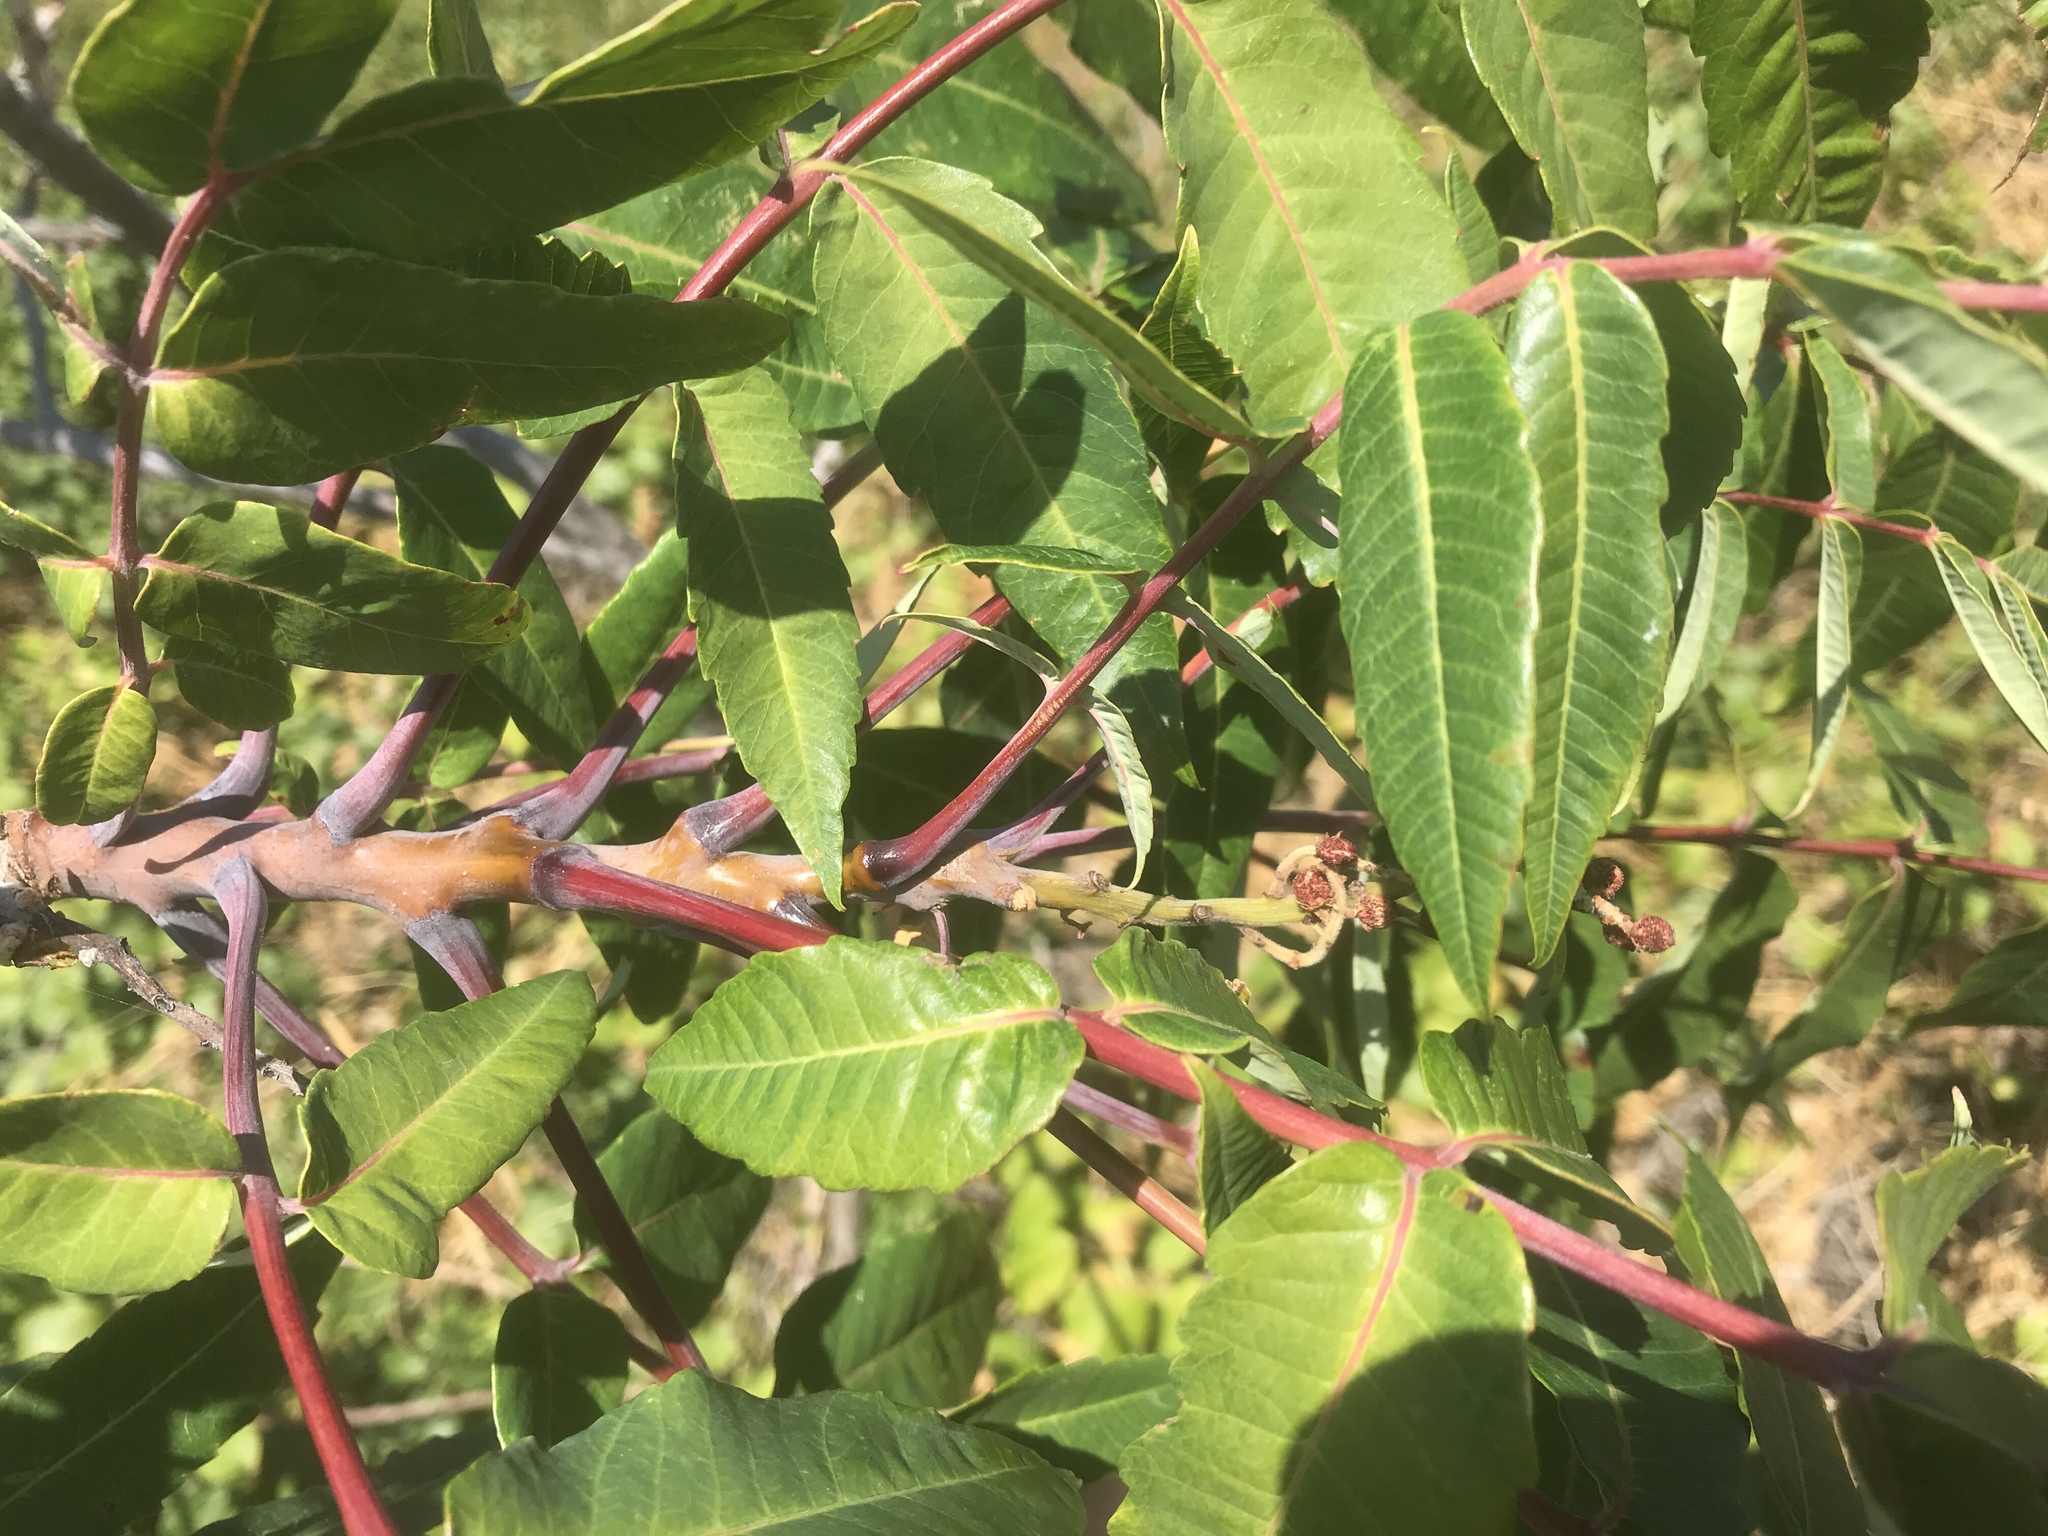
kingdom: Plantae
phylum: Tracheophyta
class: Magnoliopsida
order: Sapindales
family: Anacardiaceae
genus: Rhus
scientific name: Rhus glabra
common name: Scarlet sumac
